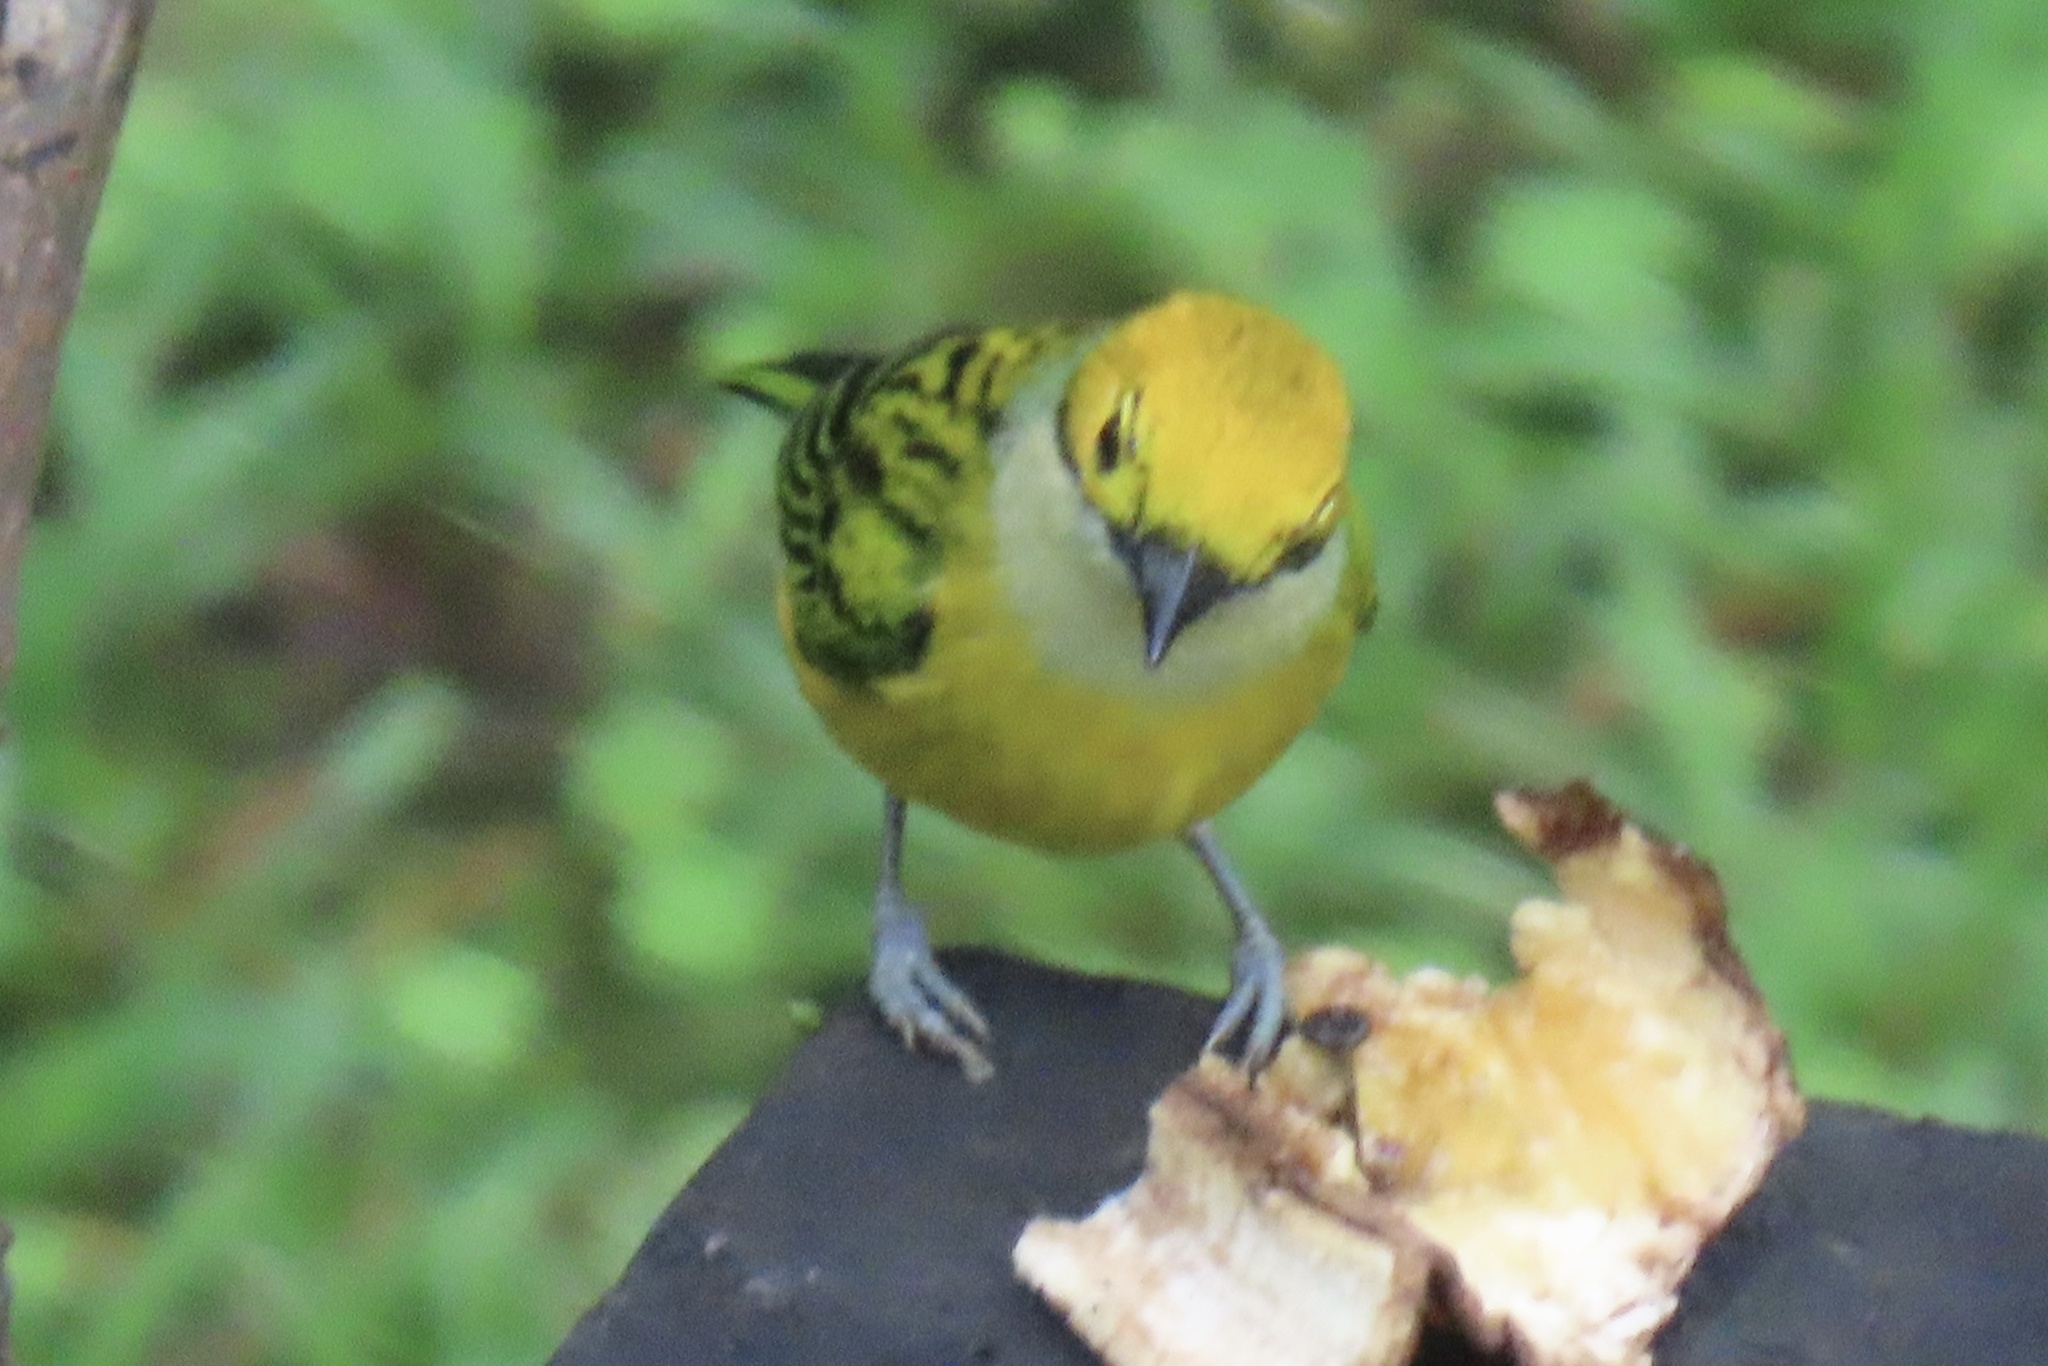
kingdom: Animalia
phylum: Chordata
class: Aves
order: Passeriformes
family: Thraupidae
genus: Tangara
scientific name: Tangara icterocephala
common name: Silver-throated tanager
